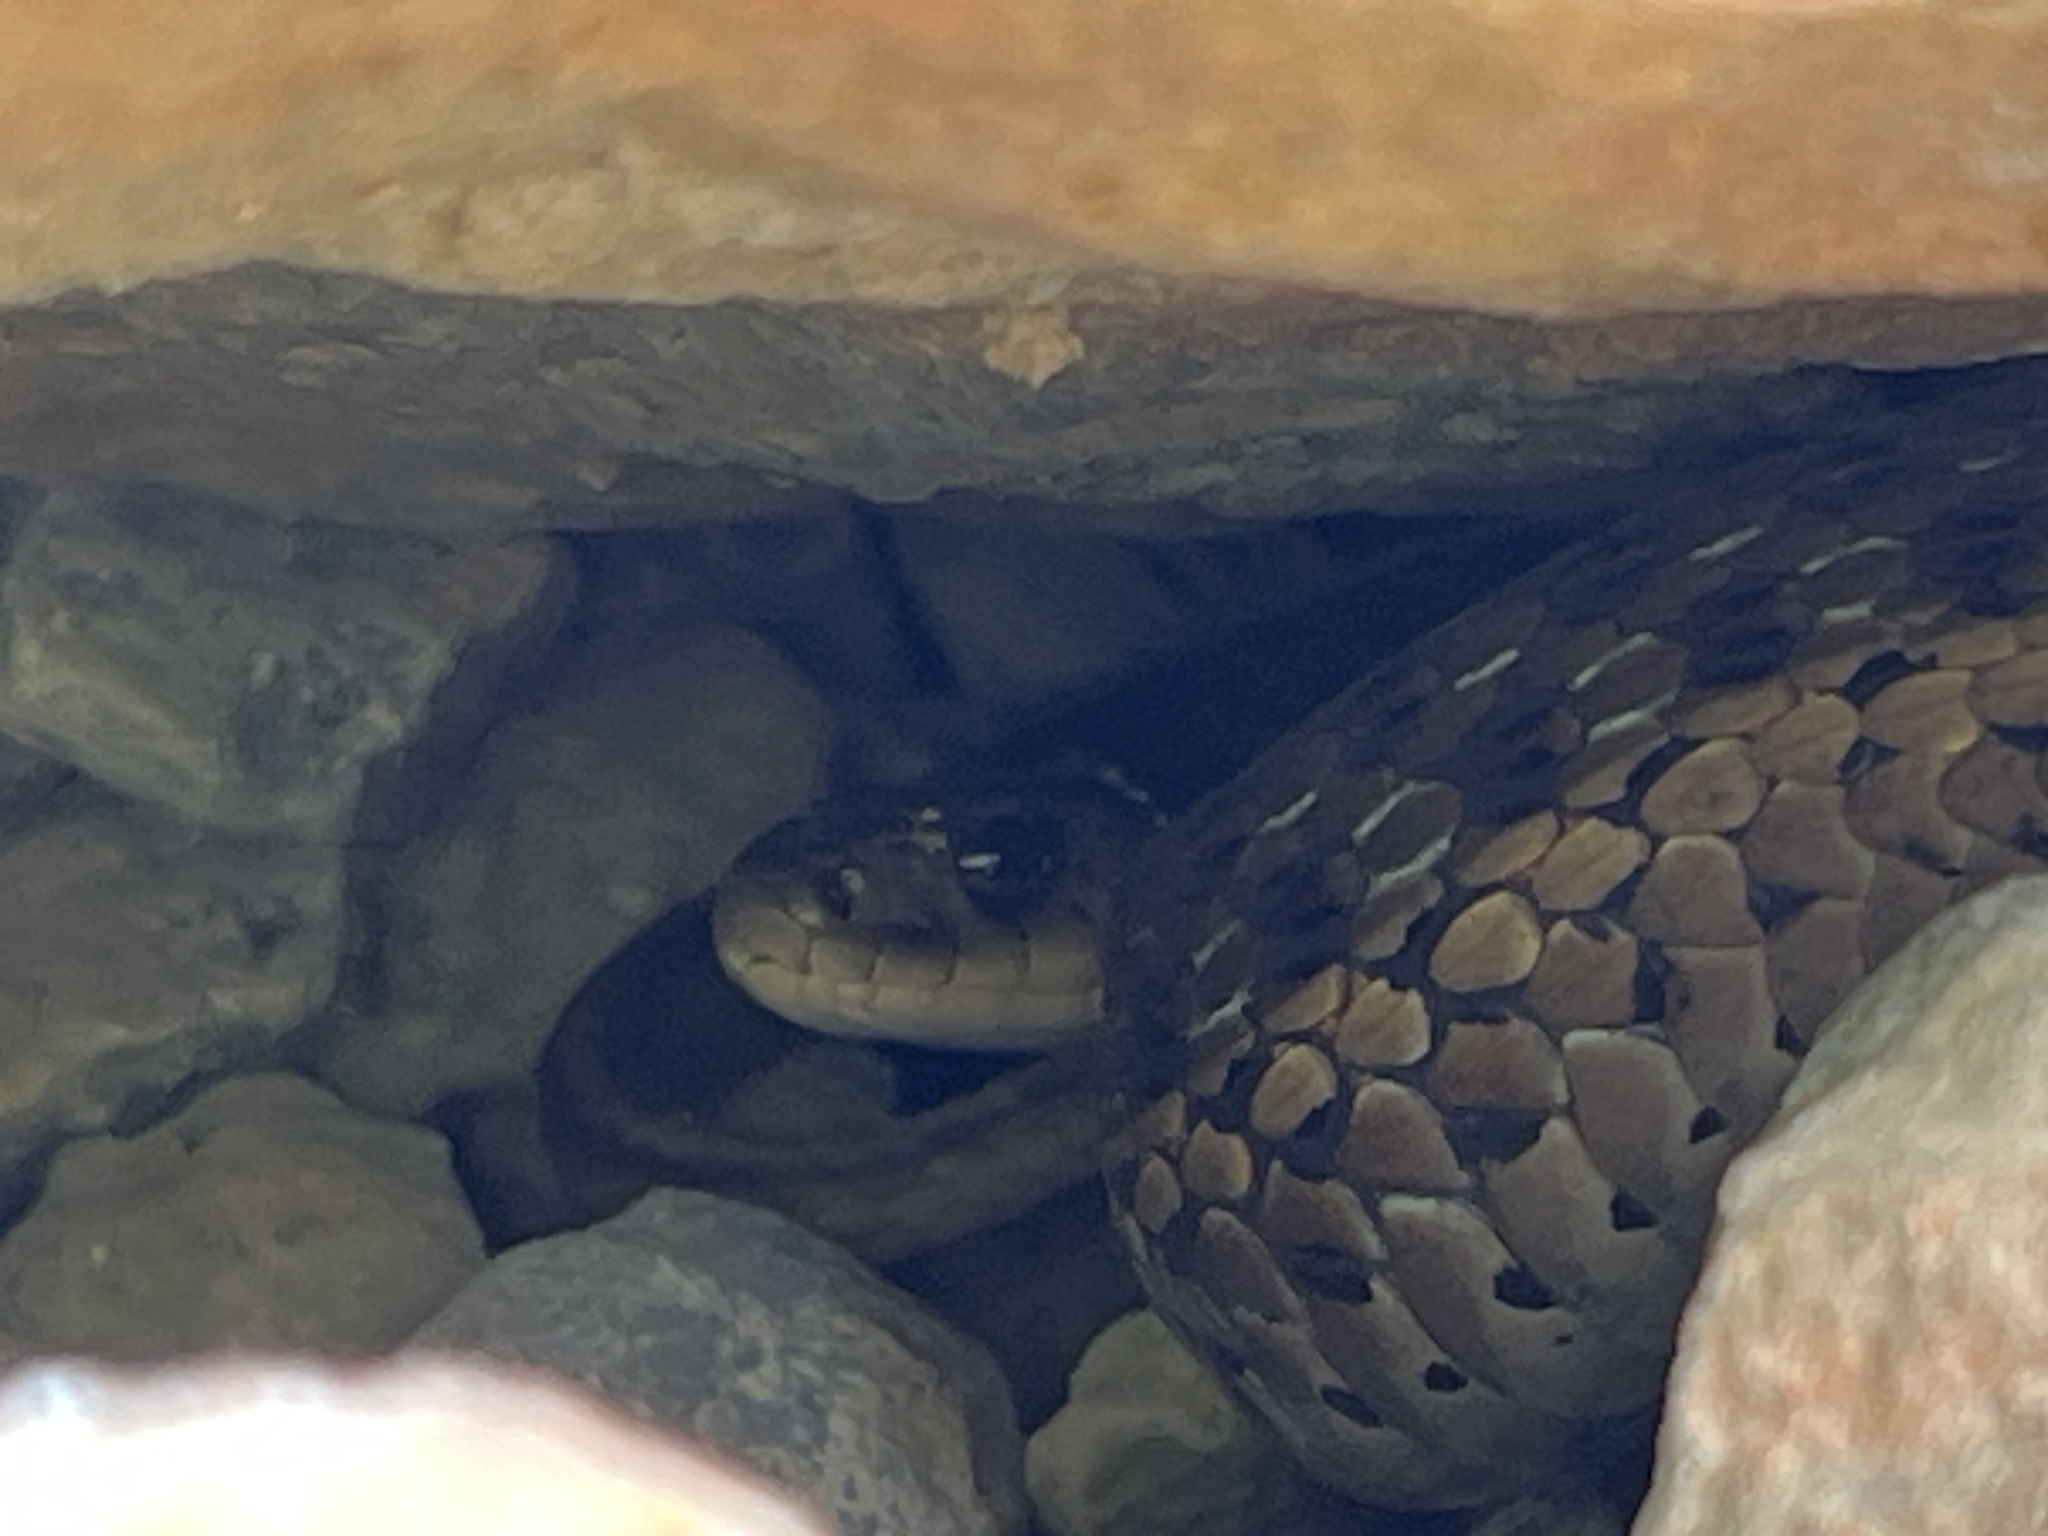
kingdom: Animalia
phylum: Chordata
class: Squamata
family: Colubridae
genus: Thamnophis
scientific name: Thamnophis sirtalis
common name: Common garter snake
